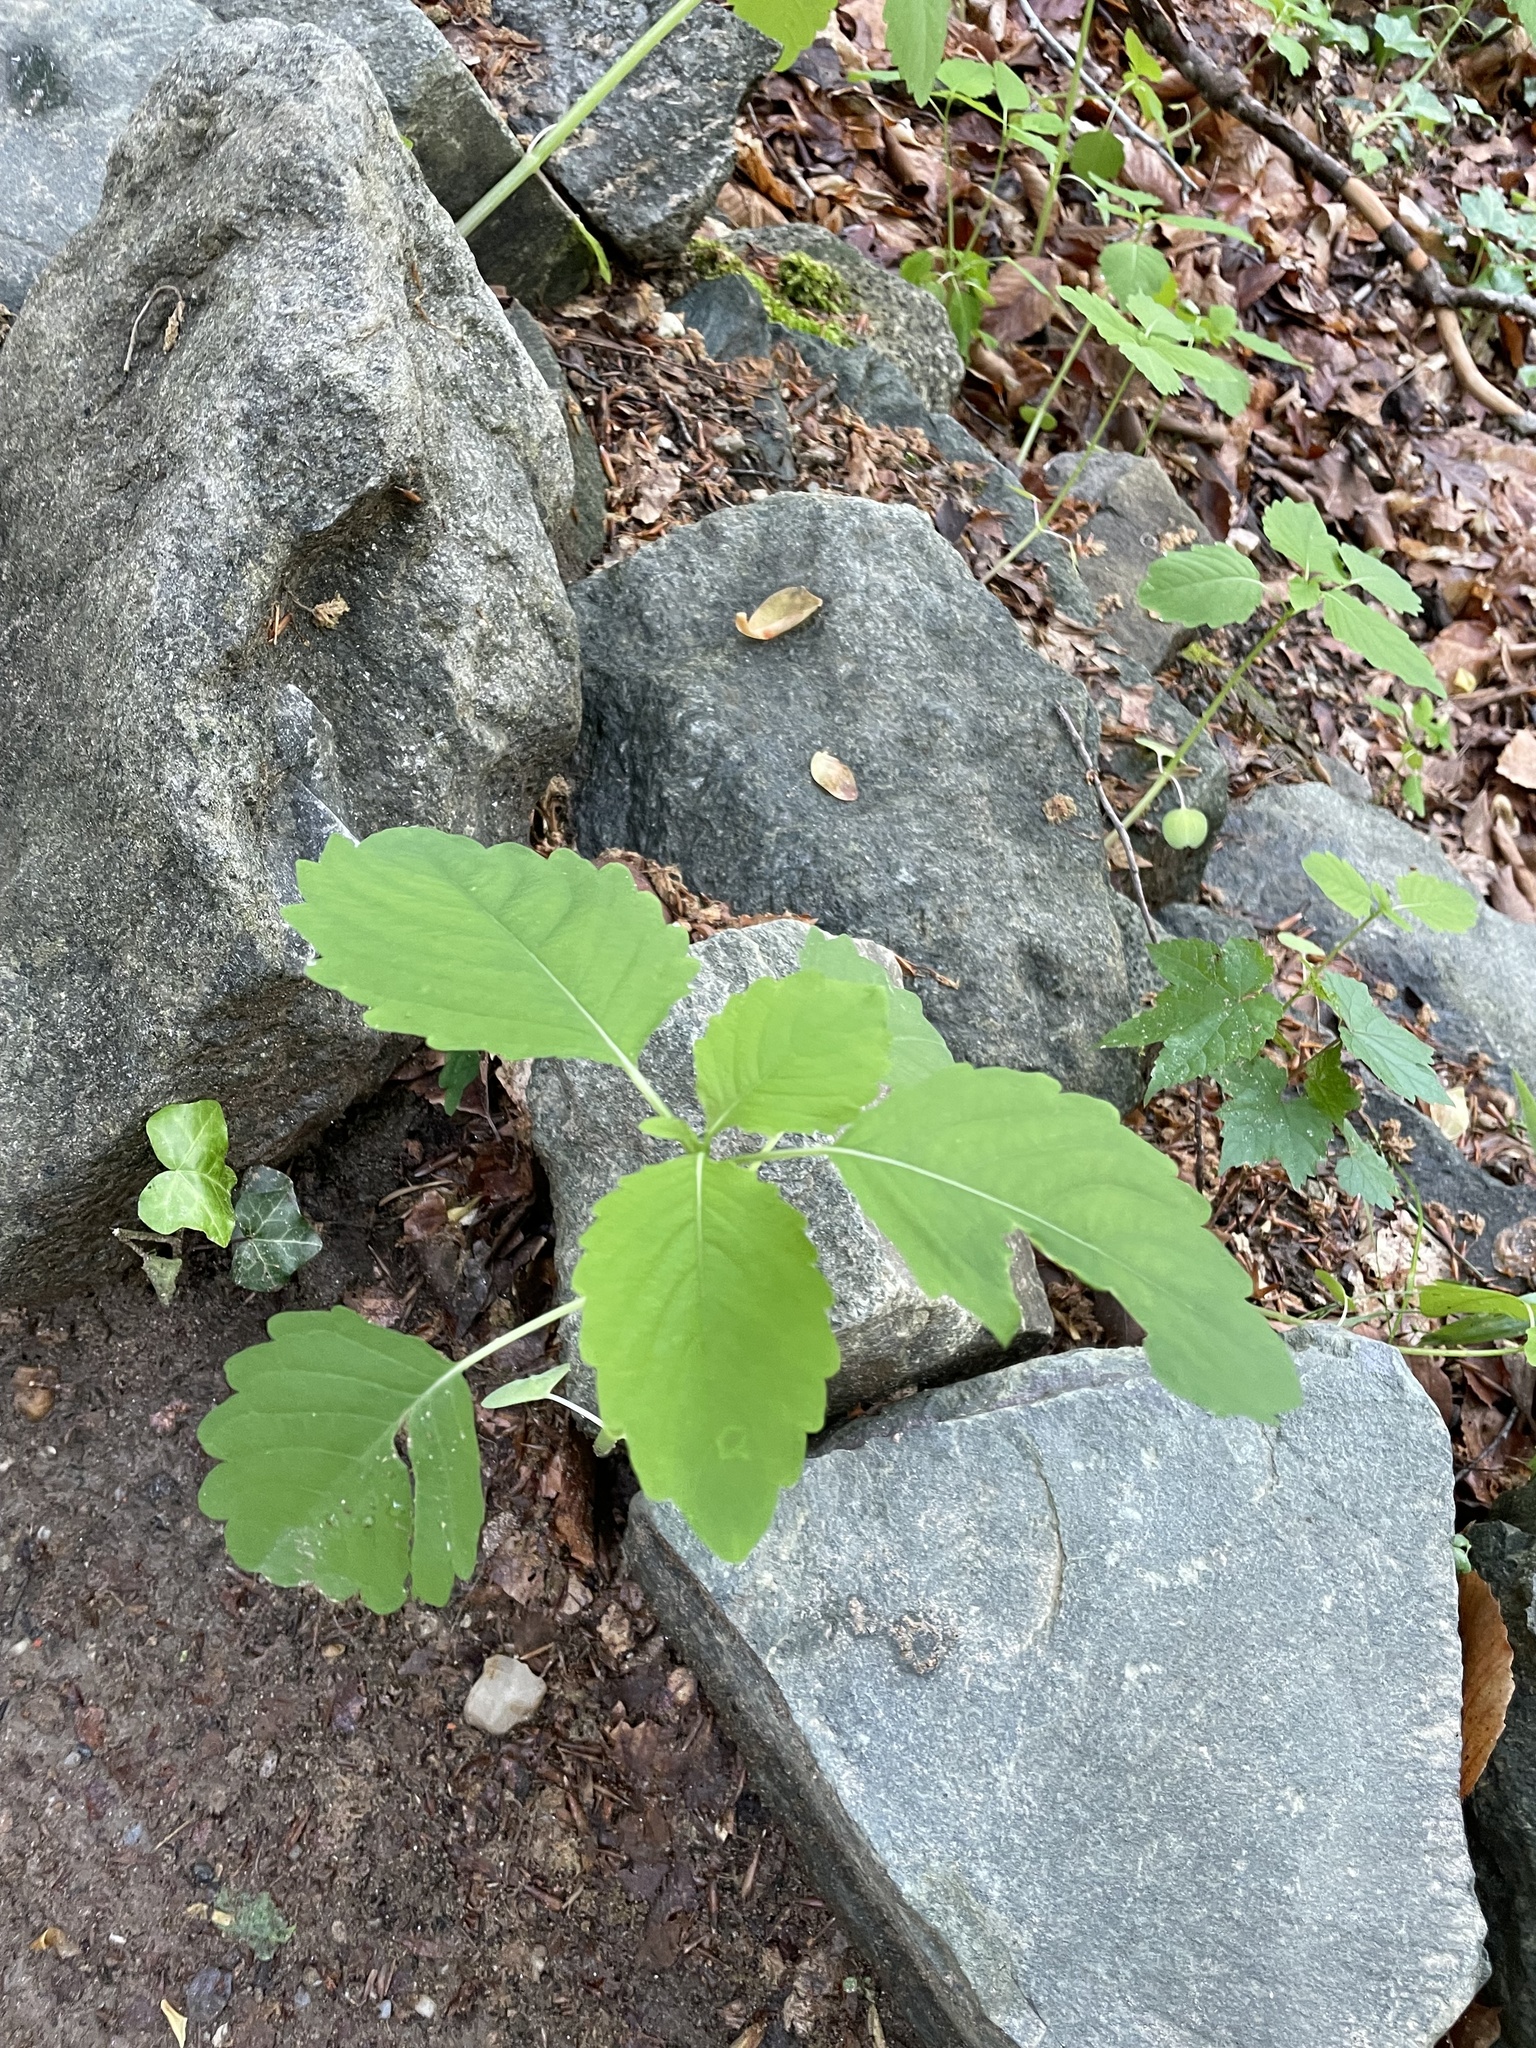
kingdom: Plantae
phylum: Tracheophyta
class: Magnoliopsida
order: Ericales
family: Balsaminaceae
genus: Impatiens
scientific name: Impatiens capensis
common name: Orange balsam
